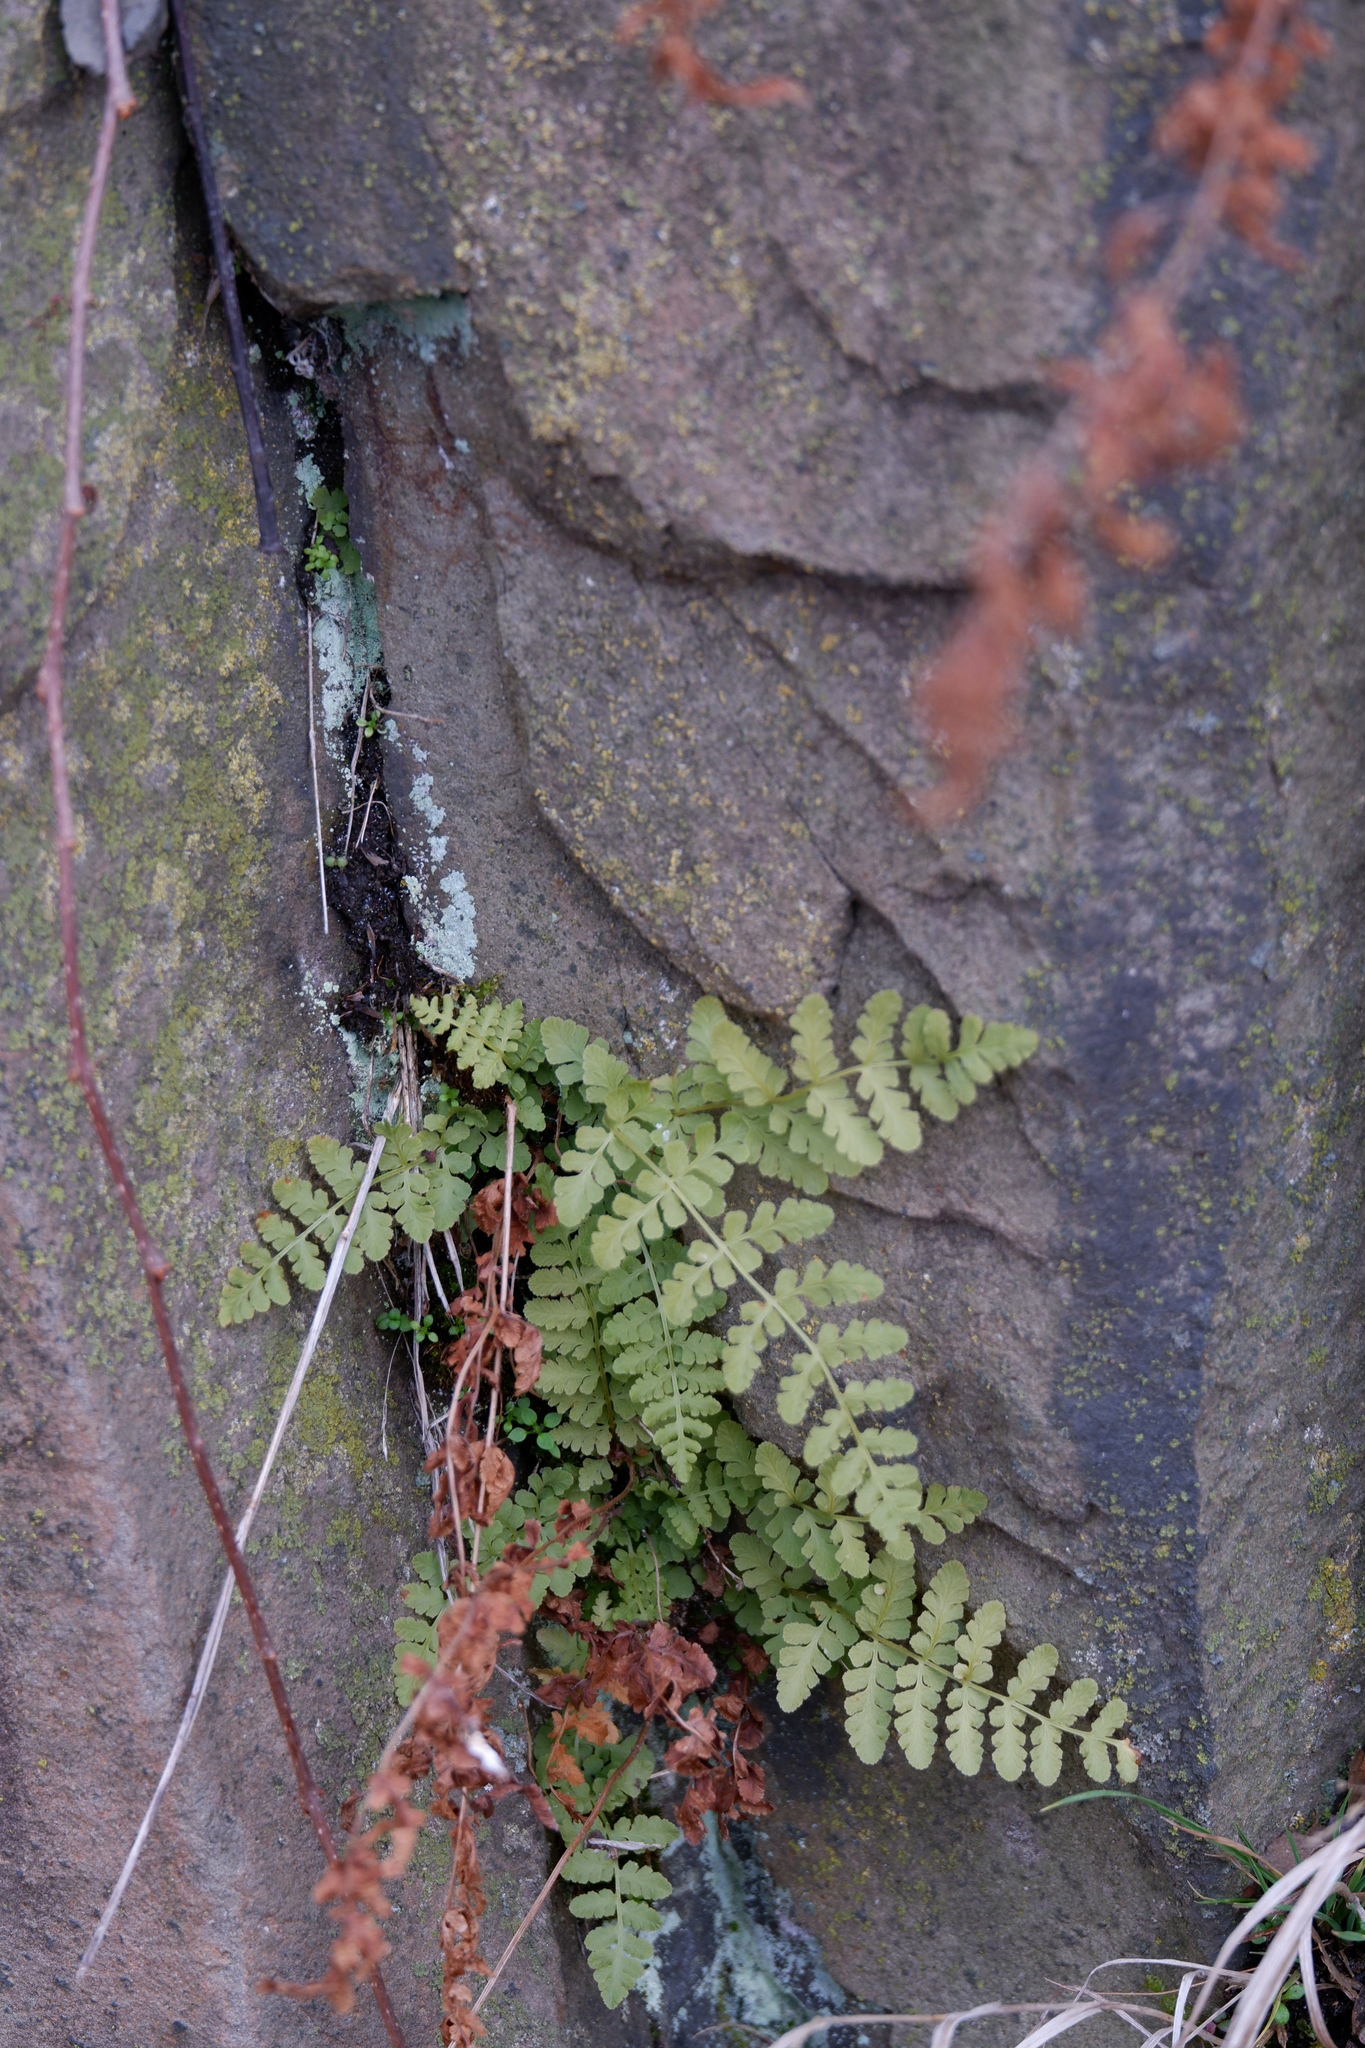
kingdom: Plantae
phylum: Tracheophyta
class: Polypodiopsida
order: Polypodiales
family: Woodsiaceae
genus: Physematium
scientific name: Physematium obtusum
